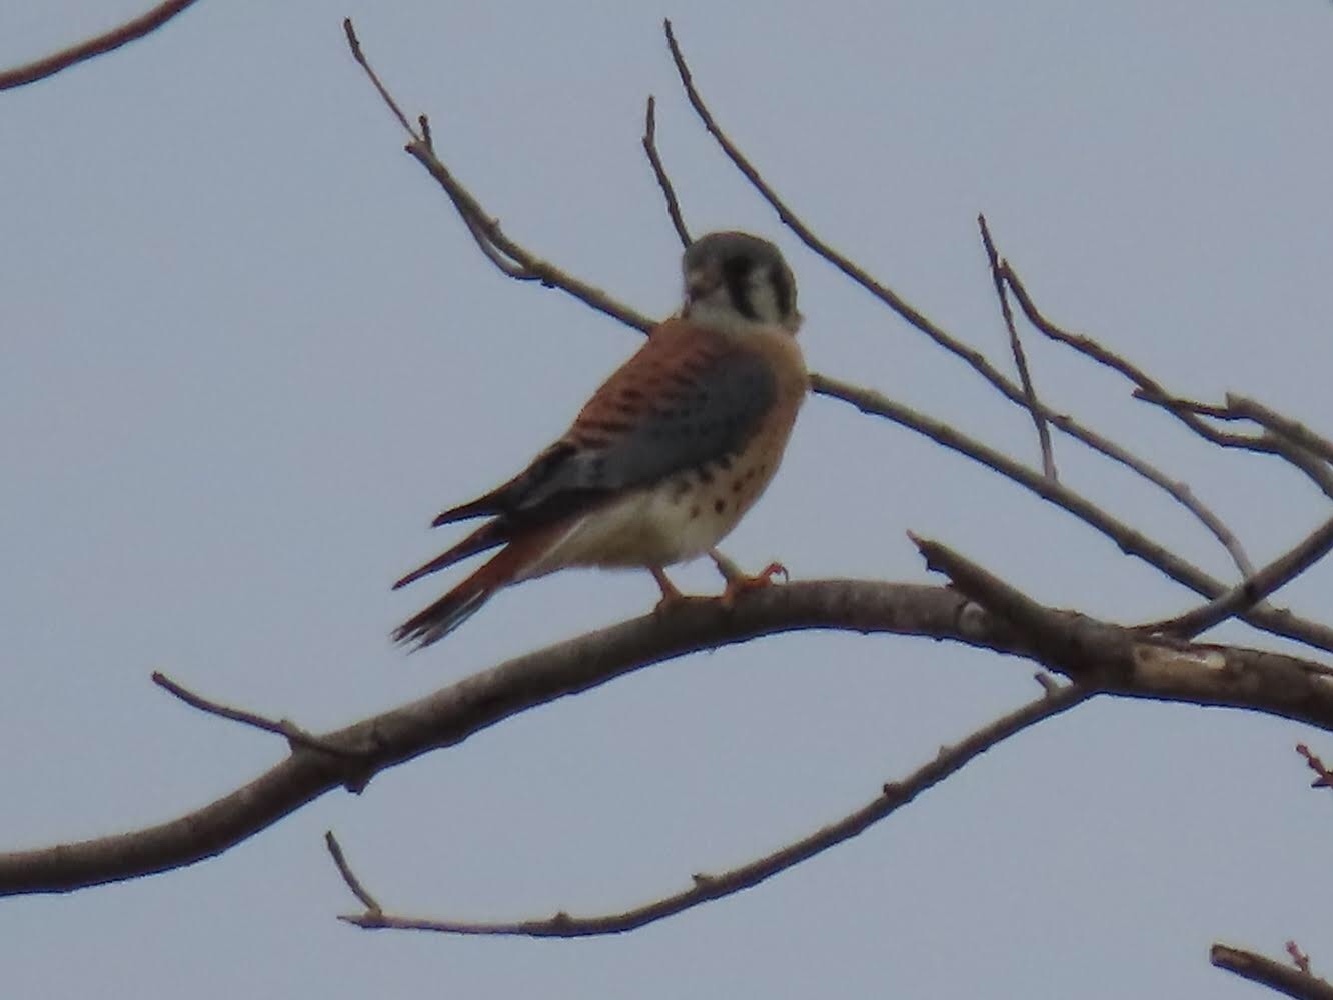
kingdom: Animalia
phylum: Chordata
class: Aves
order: Falconiformes
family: Falconidae
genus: Falco
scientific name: Falco sparverius
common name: American kestrel
